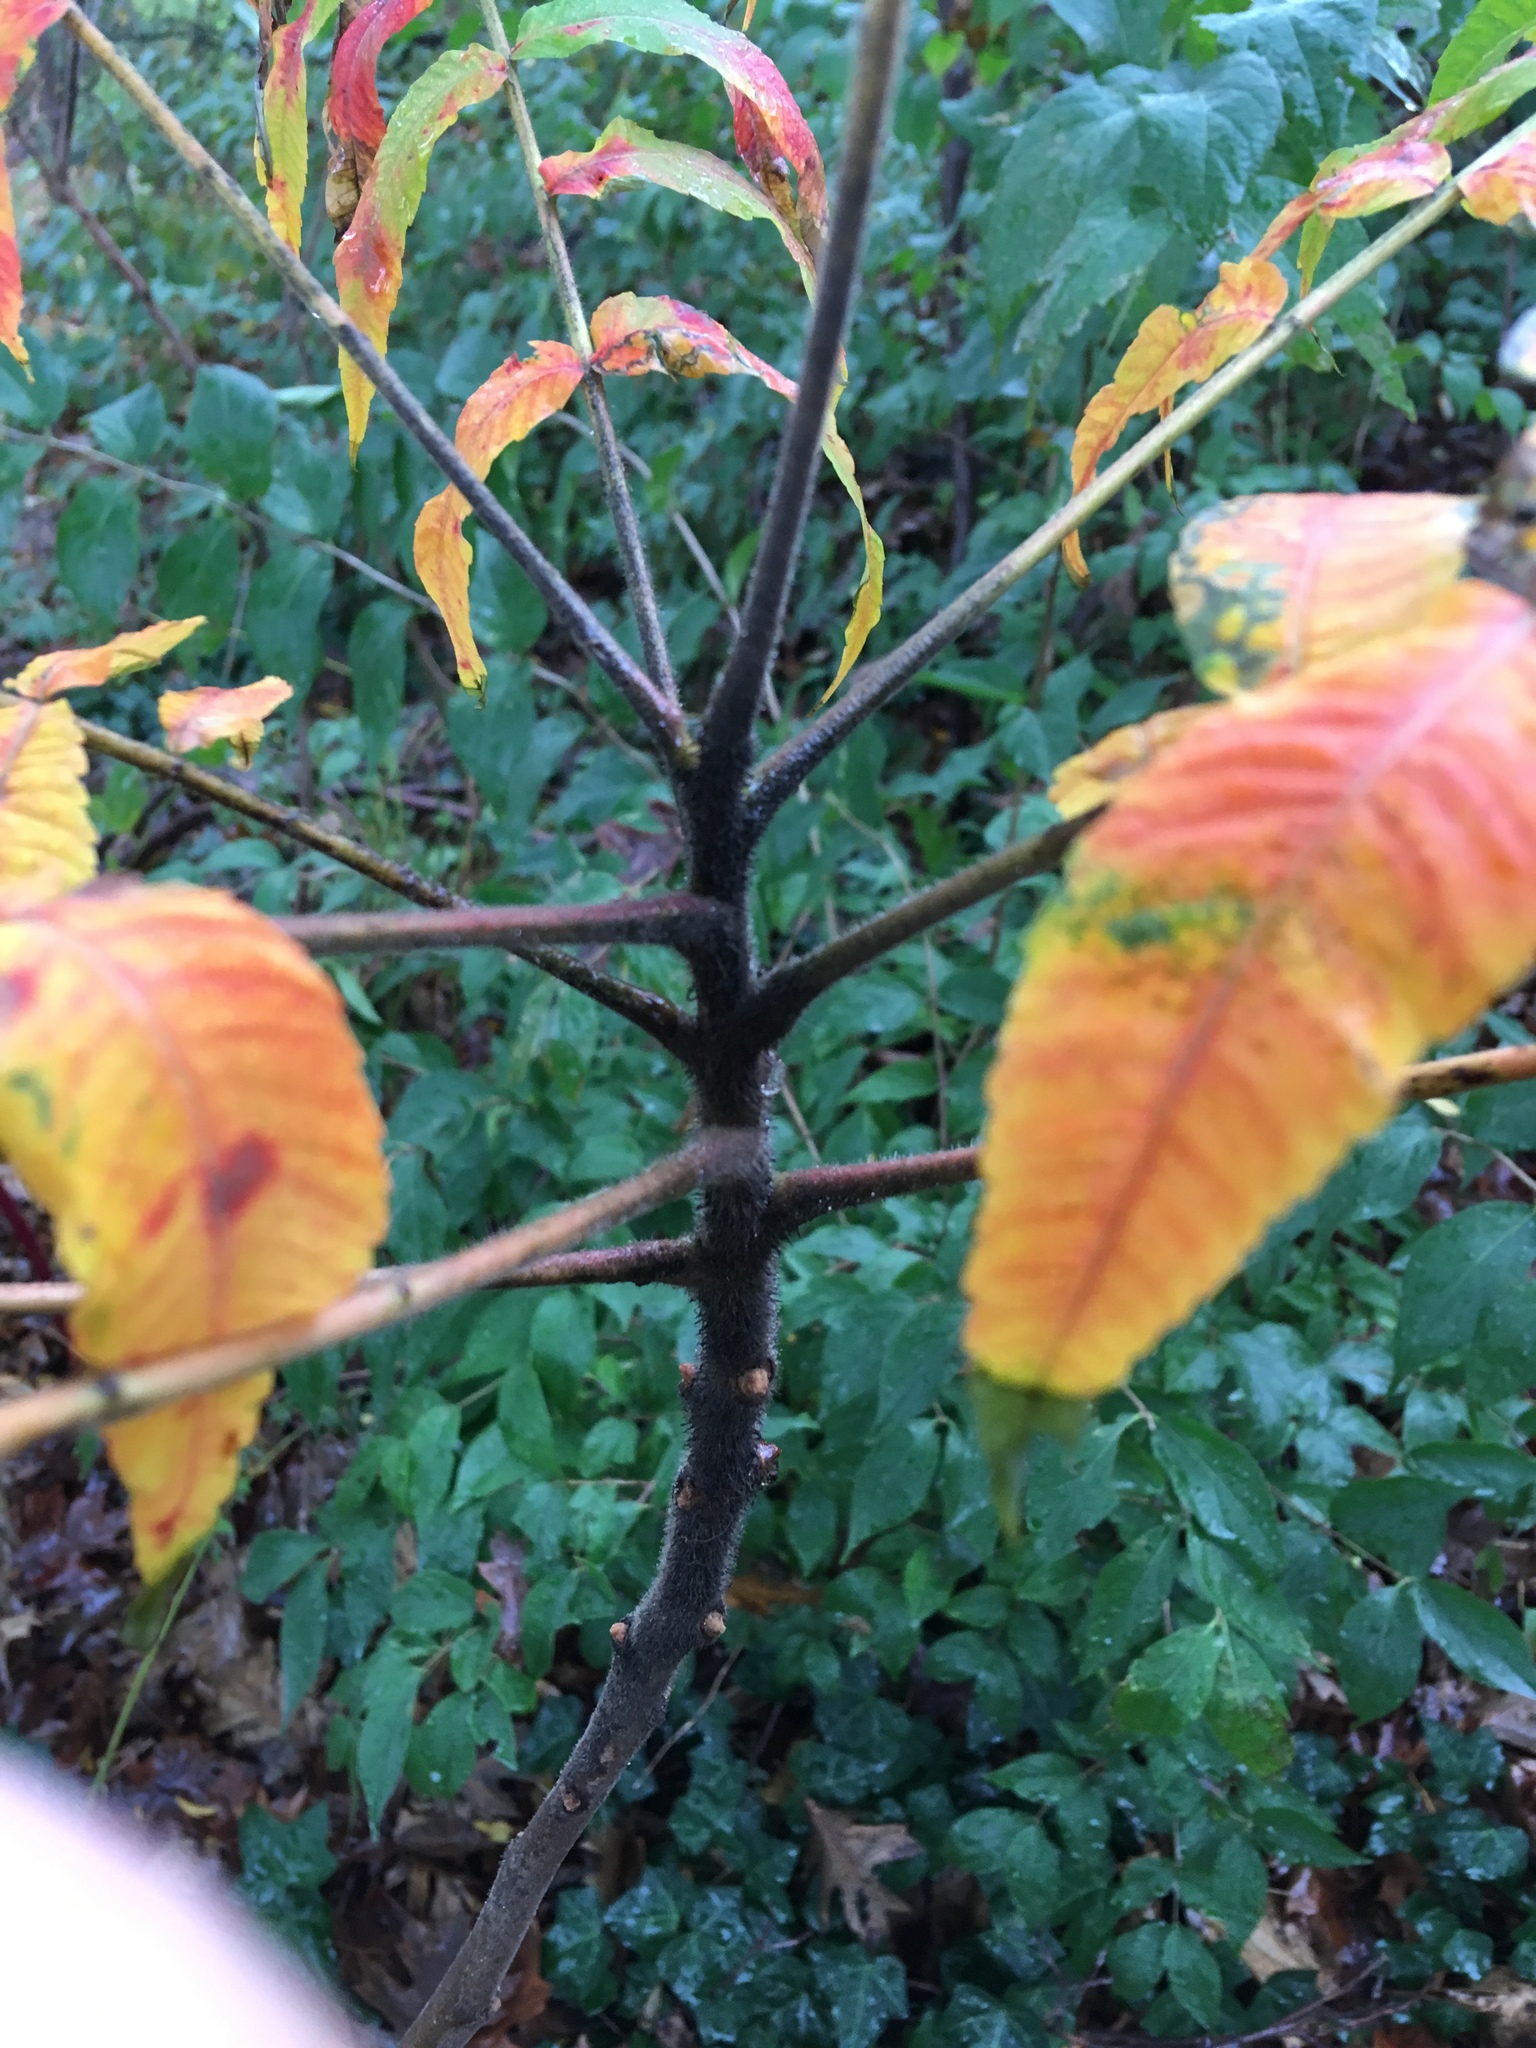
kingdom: Plantae
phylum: Tracheophyta
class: Magnoliopsida
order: Sapindales
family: Anacardiaceae
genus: Rhus
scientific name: Rhus typhina
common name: Staghorn sumac
